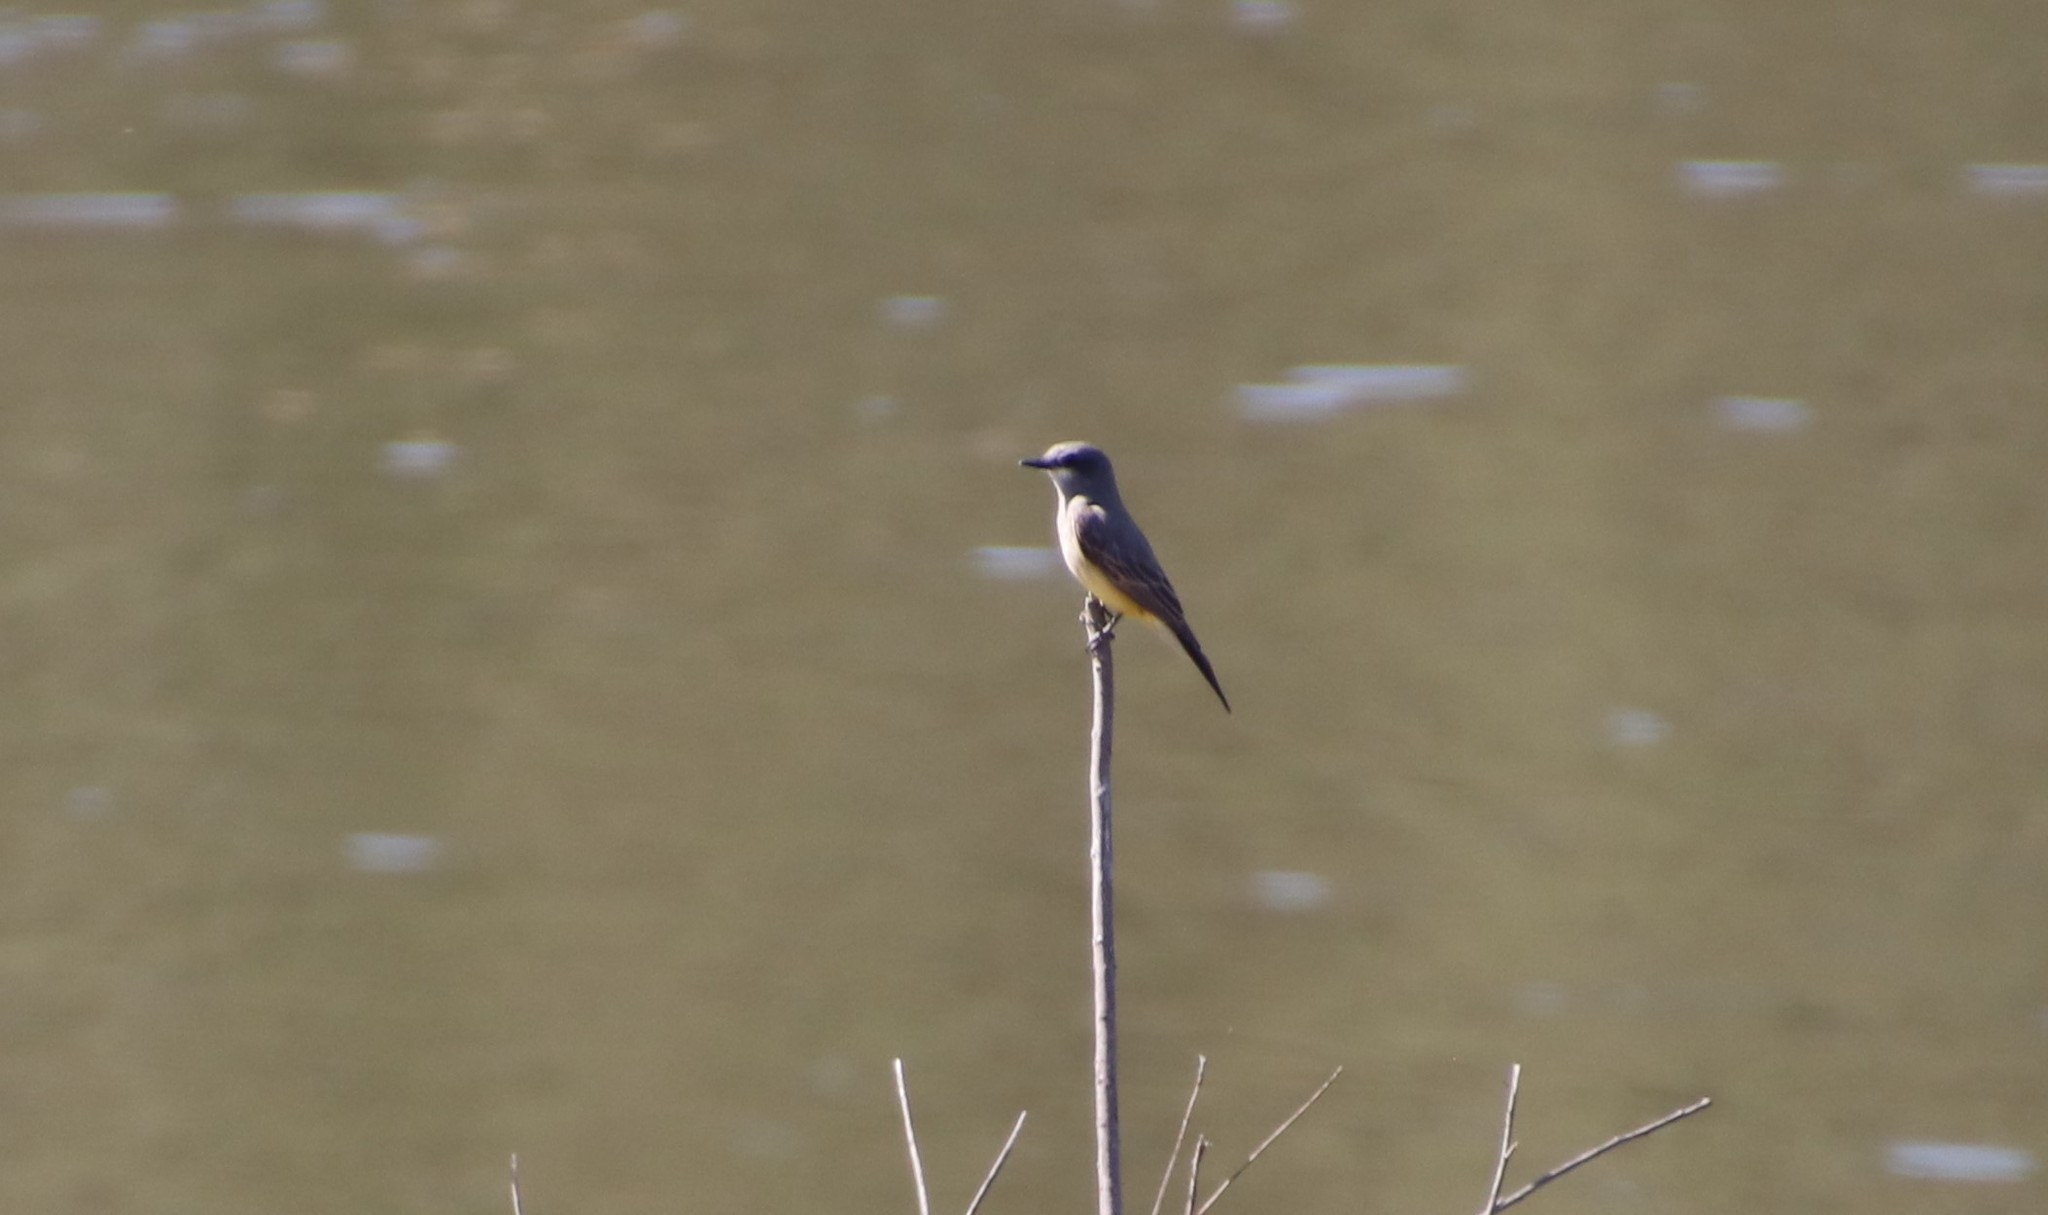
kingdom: Animalia
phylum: Chordata
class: Aves
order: Passeriformes
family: Tyrannidae
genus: Tyrannus
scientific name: Tyrannus vociferans
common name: Cassin's kingbird
